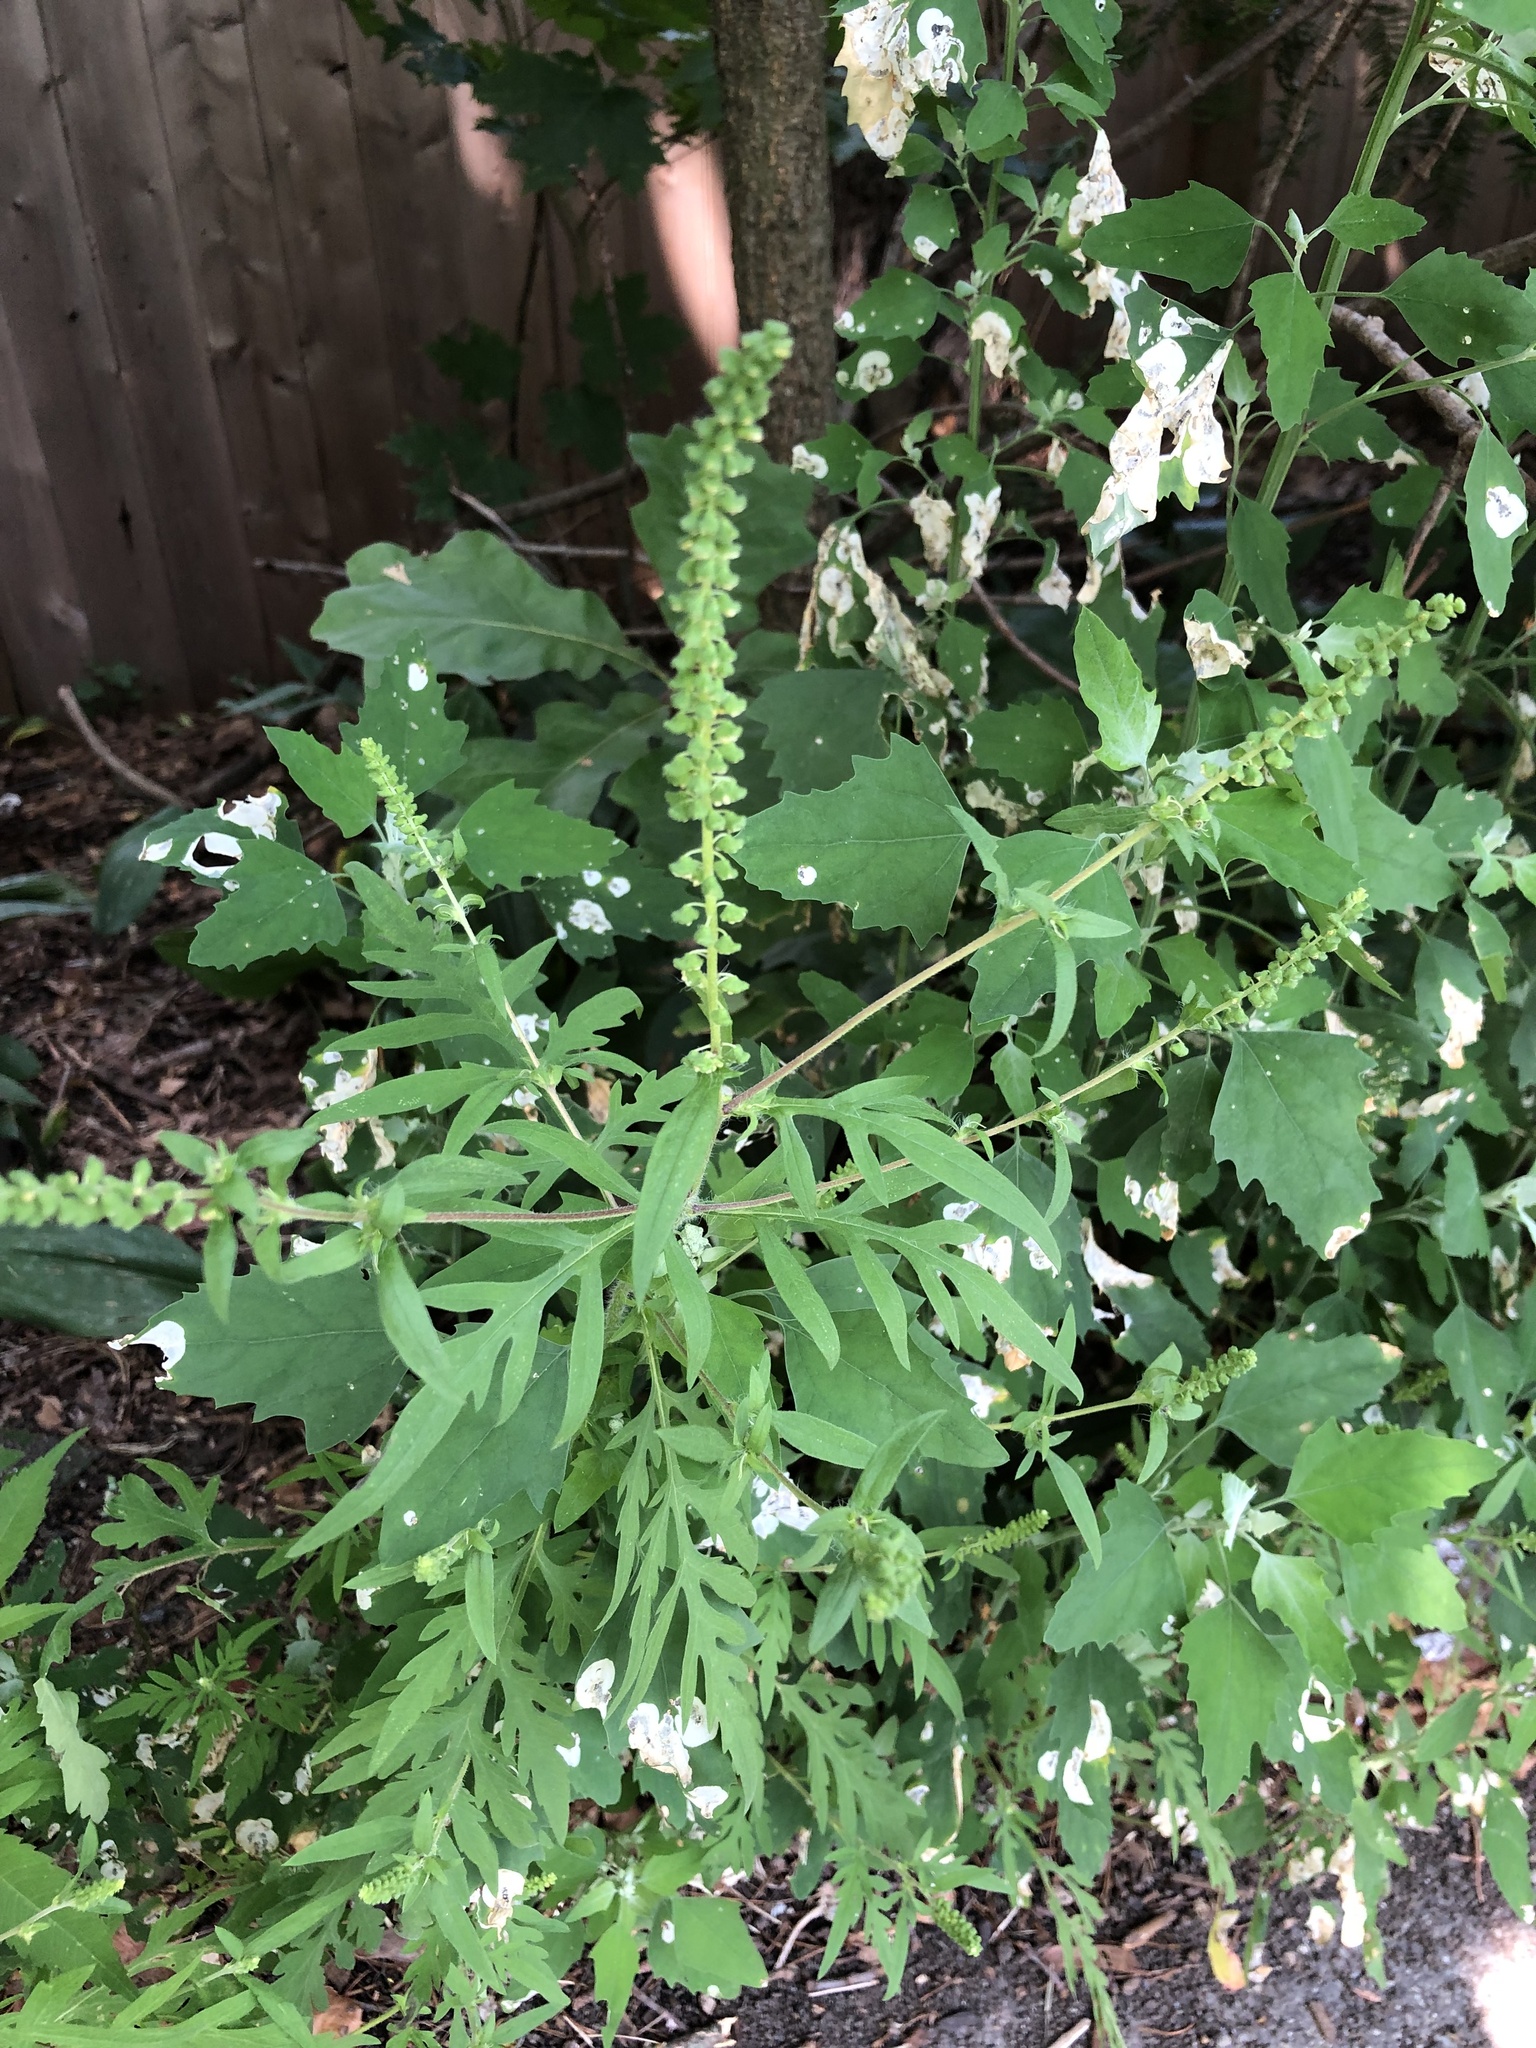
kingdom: Plantae
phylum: Tracheophyta
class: Magnoliopsida
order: Asterales
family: Asteraceae
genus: Ambrosia
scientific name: Ambrosia artemisiifolia
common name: Annual ragweed
